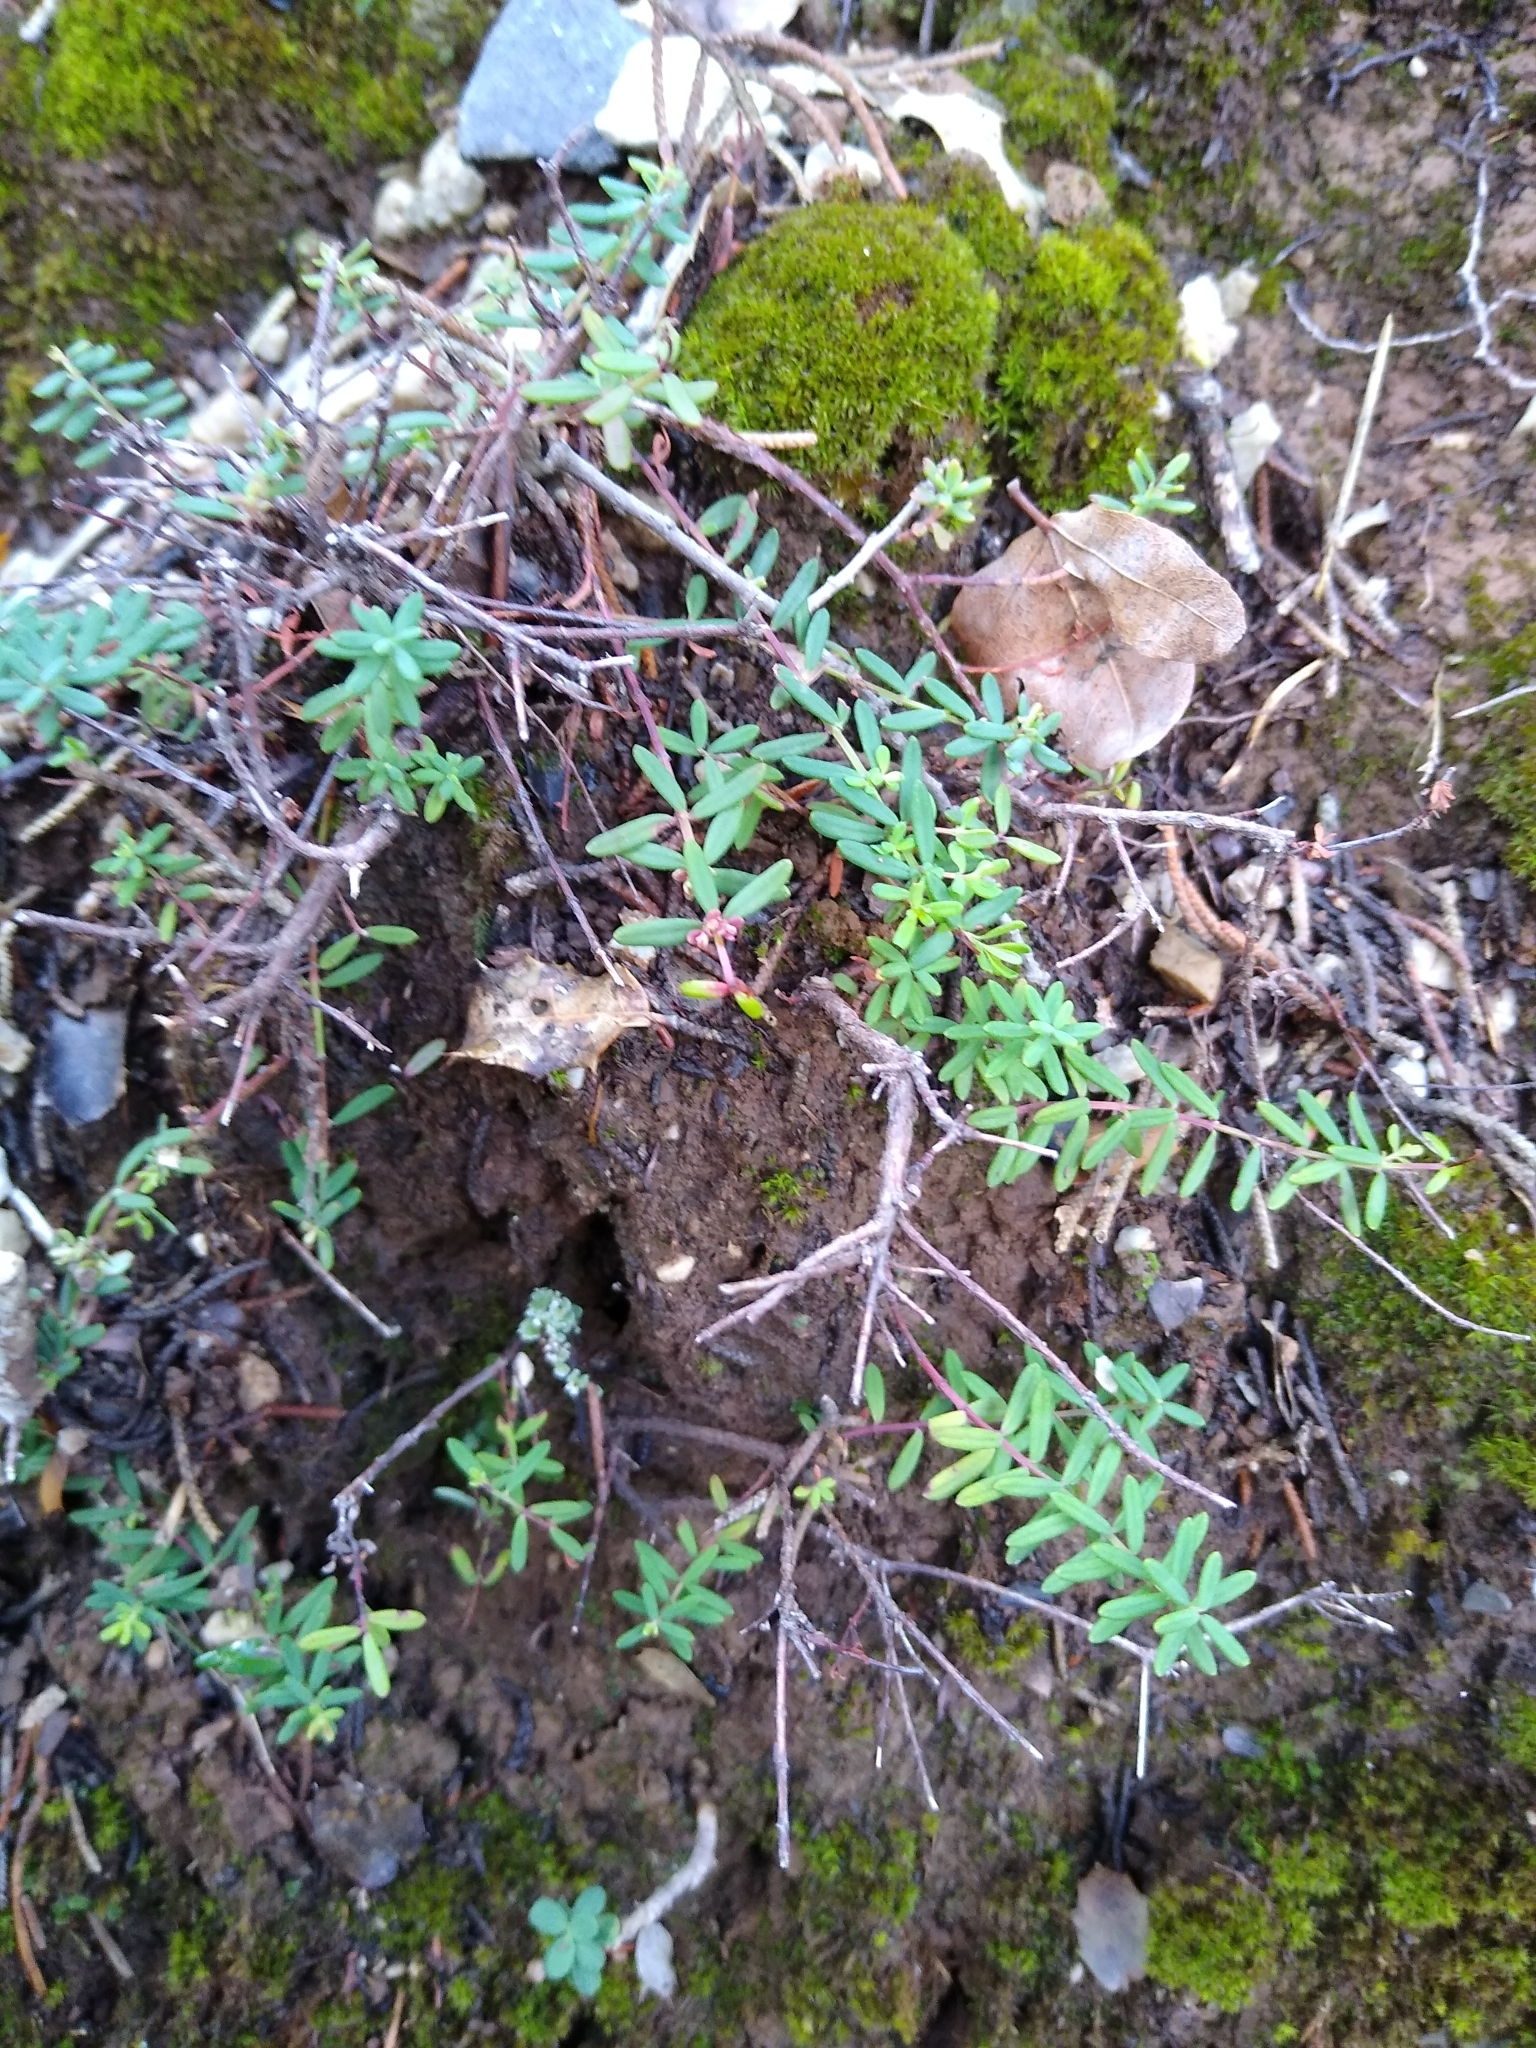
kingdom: Plantae
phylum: Tracheophyta
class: Magnoliopsida
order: Malpighiales
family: Hypericaceae
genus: Hypericum
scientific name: Hypericum empetrifolium
